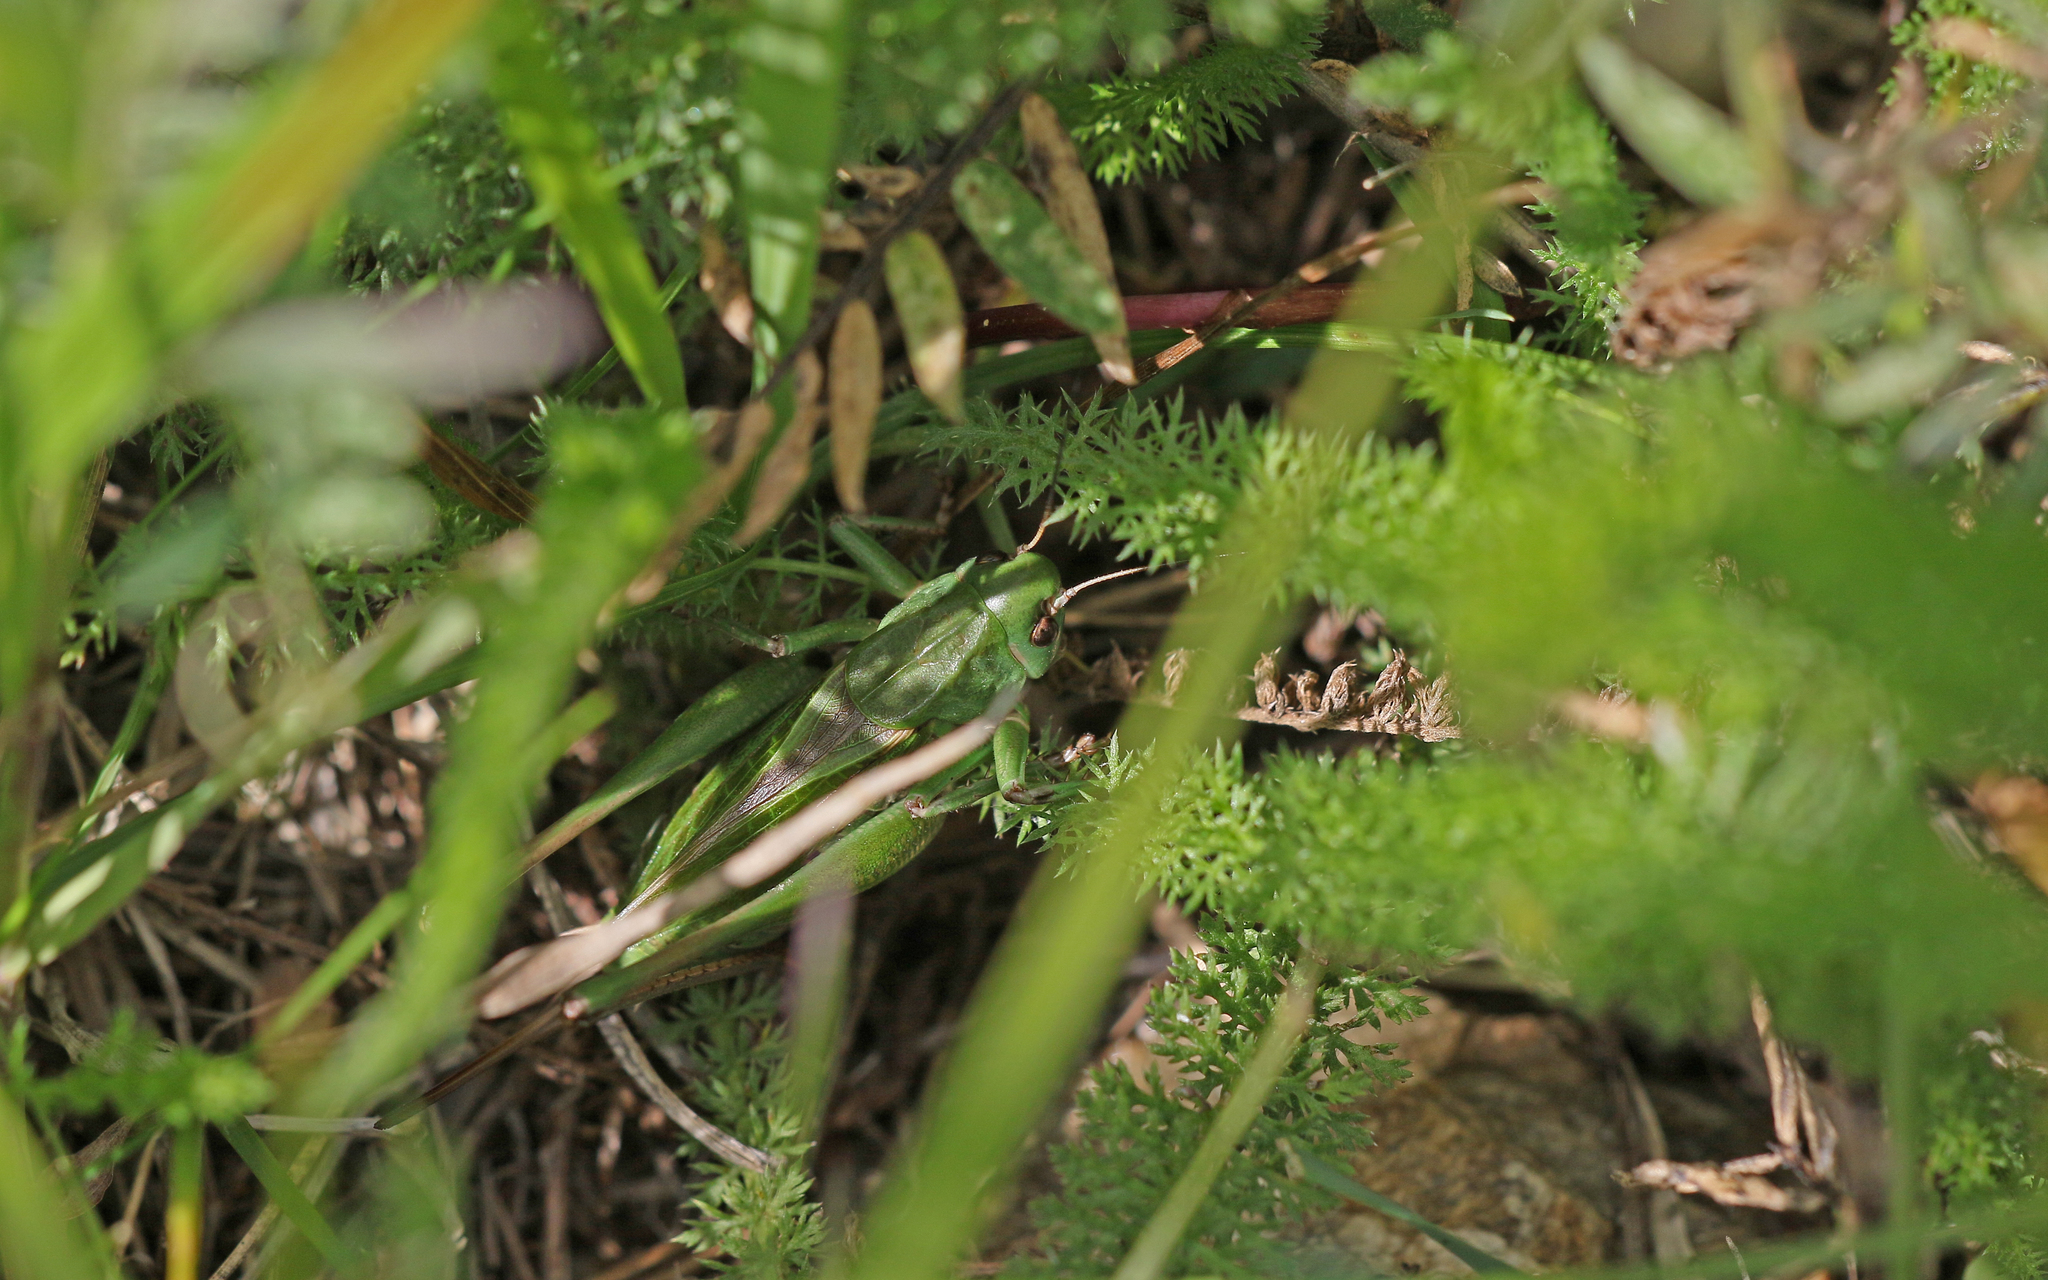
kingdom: Animalia
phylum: Arthropoda
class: Insecta
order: Orthoptera
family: Tettigoniidae
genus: Decticus
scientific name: Decticus verrucivorus
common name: Wart-biter
